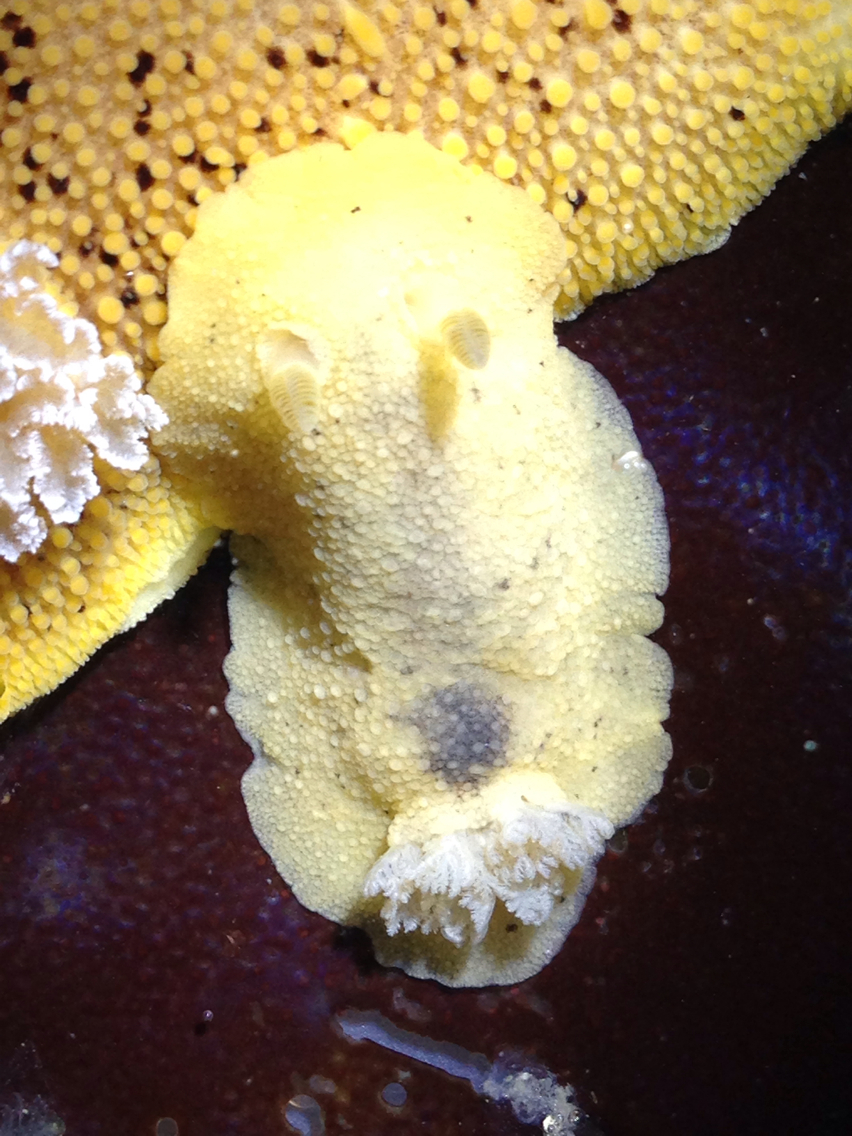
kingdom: Animalia
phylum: Mollusca
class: Gastropoda
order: Nudibranchia
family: Discodorididae
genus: Geitodoris
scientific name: Geitodoris heathi
